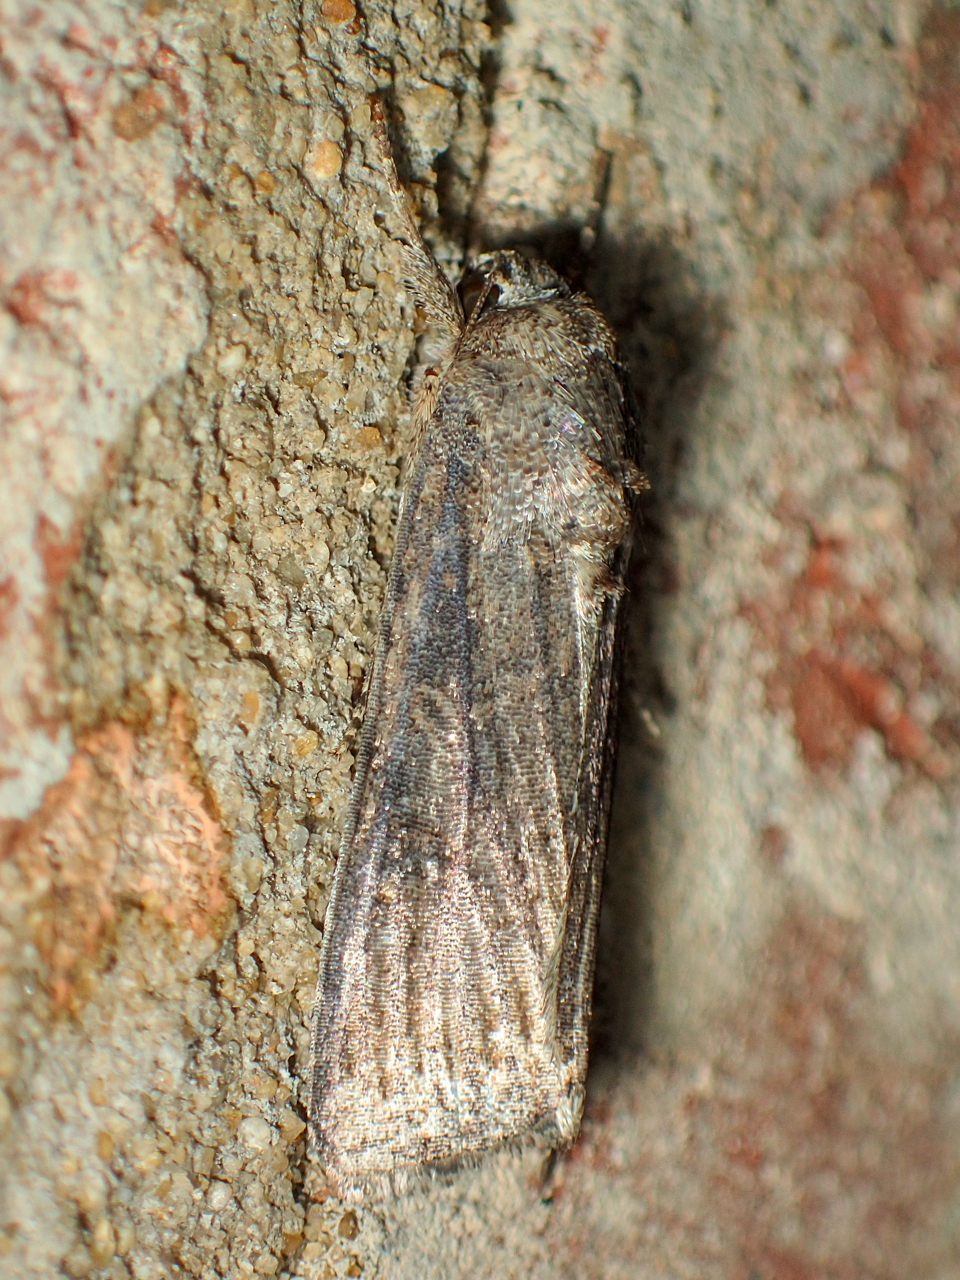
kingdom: Animalia
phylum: Arthropoda
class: Insecta
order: Lepidoptera
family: Noctuidae
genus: Spodoptera
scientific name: Spodoptera frugiperda
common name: Fall armyworm
